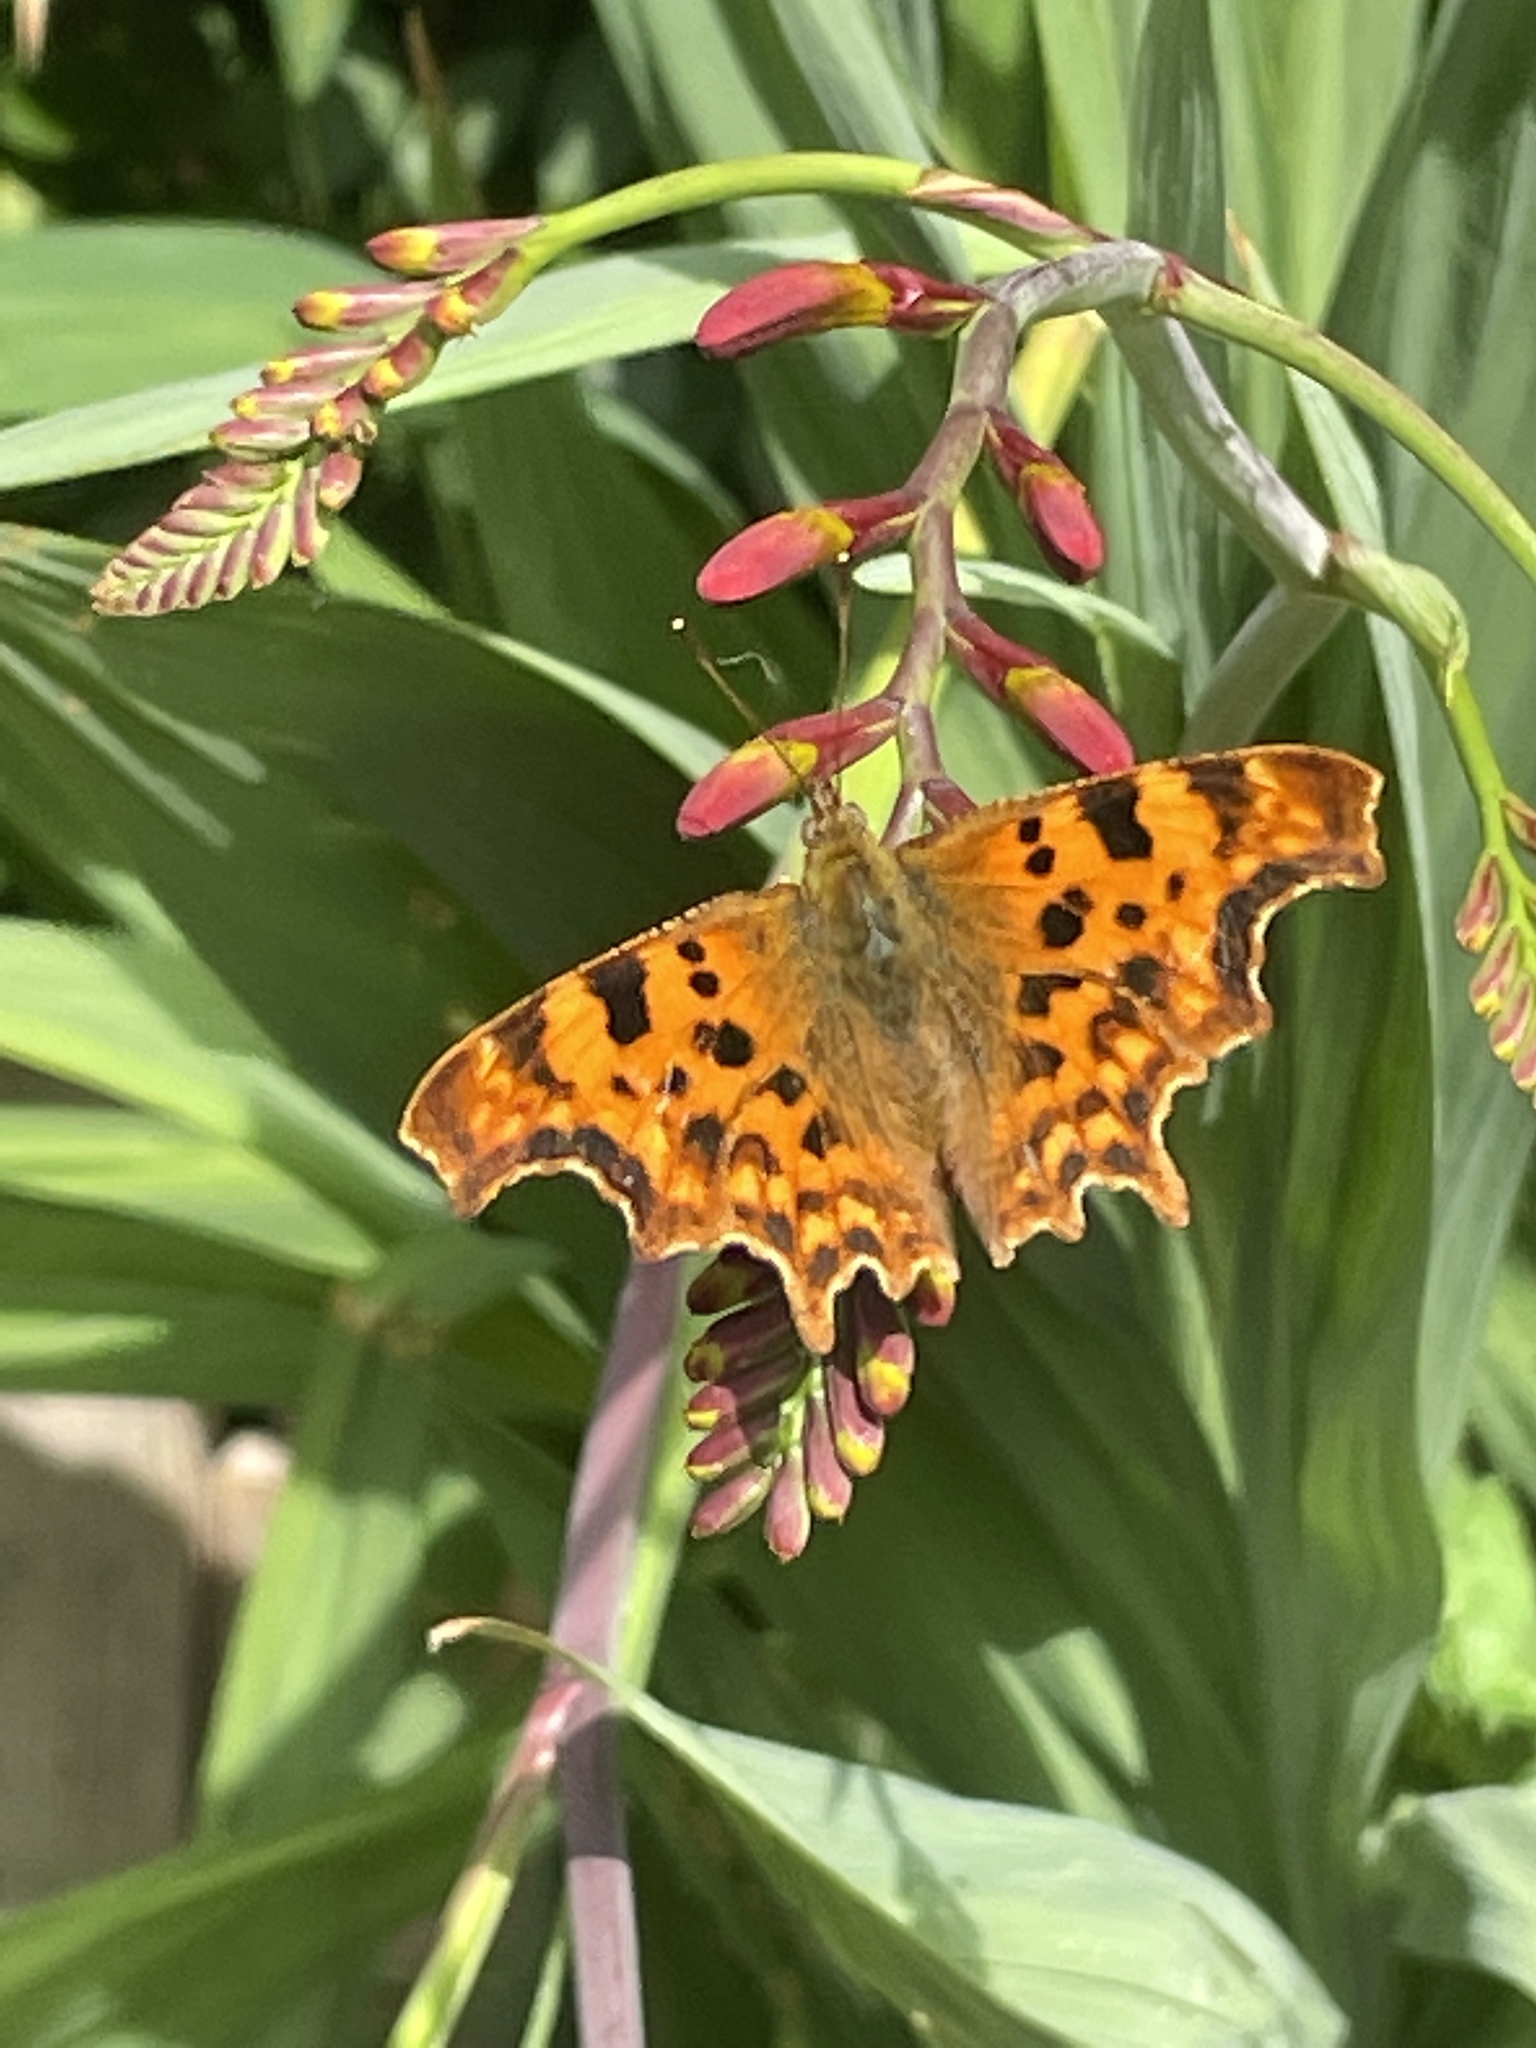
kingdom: Animalia
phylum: Arthropoda
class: Insecta
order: Lepidoptera
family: Nymphalidae
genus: Polygonia
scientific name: Polygonia c-album
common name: Comma
